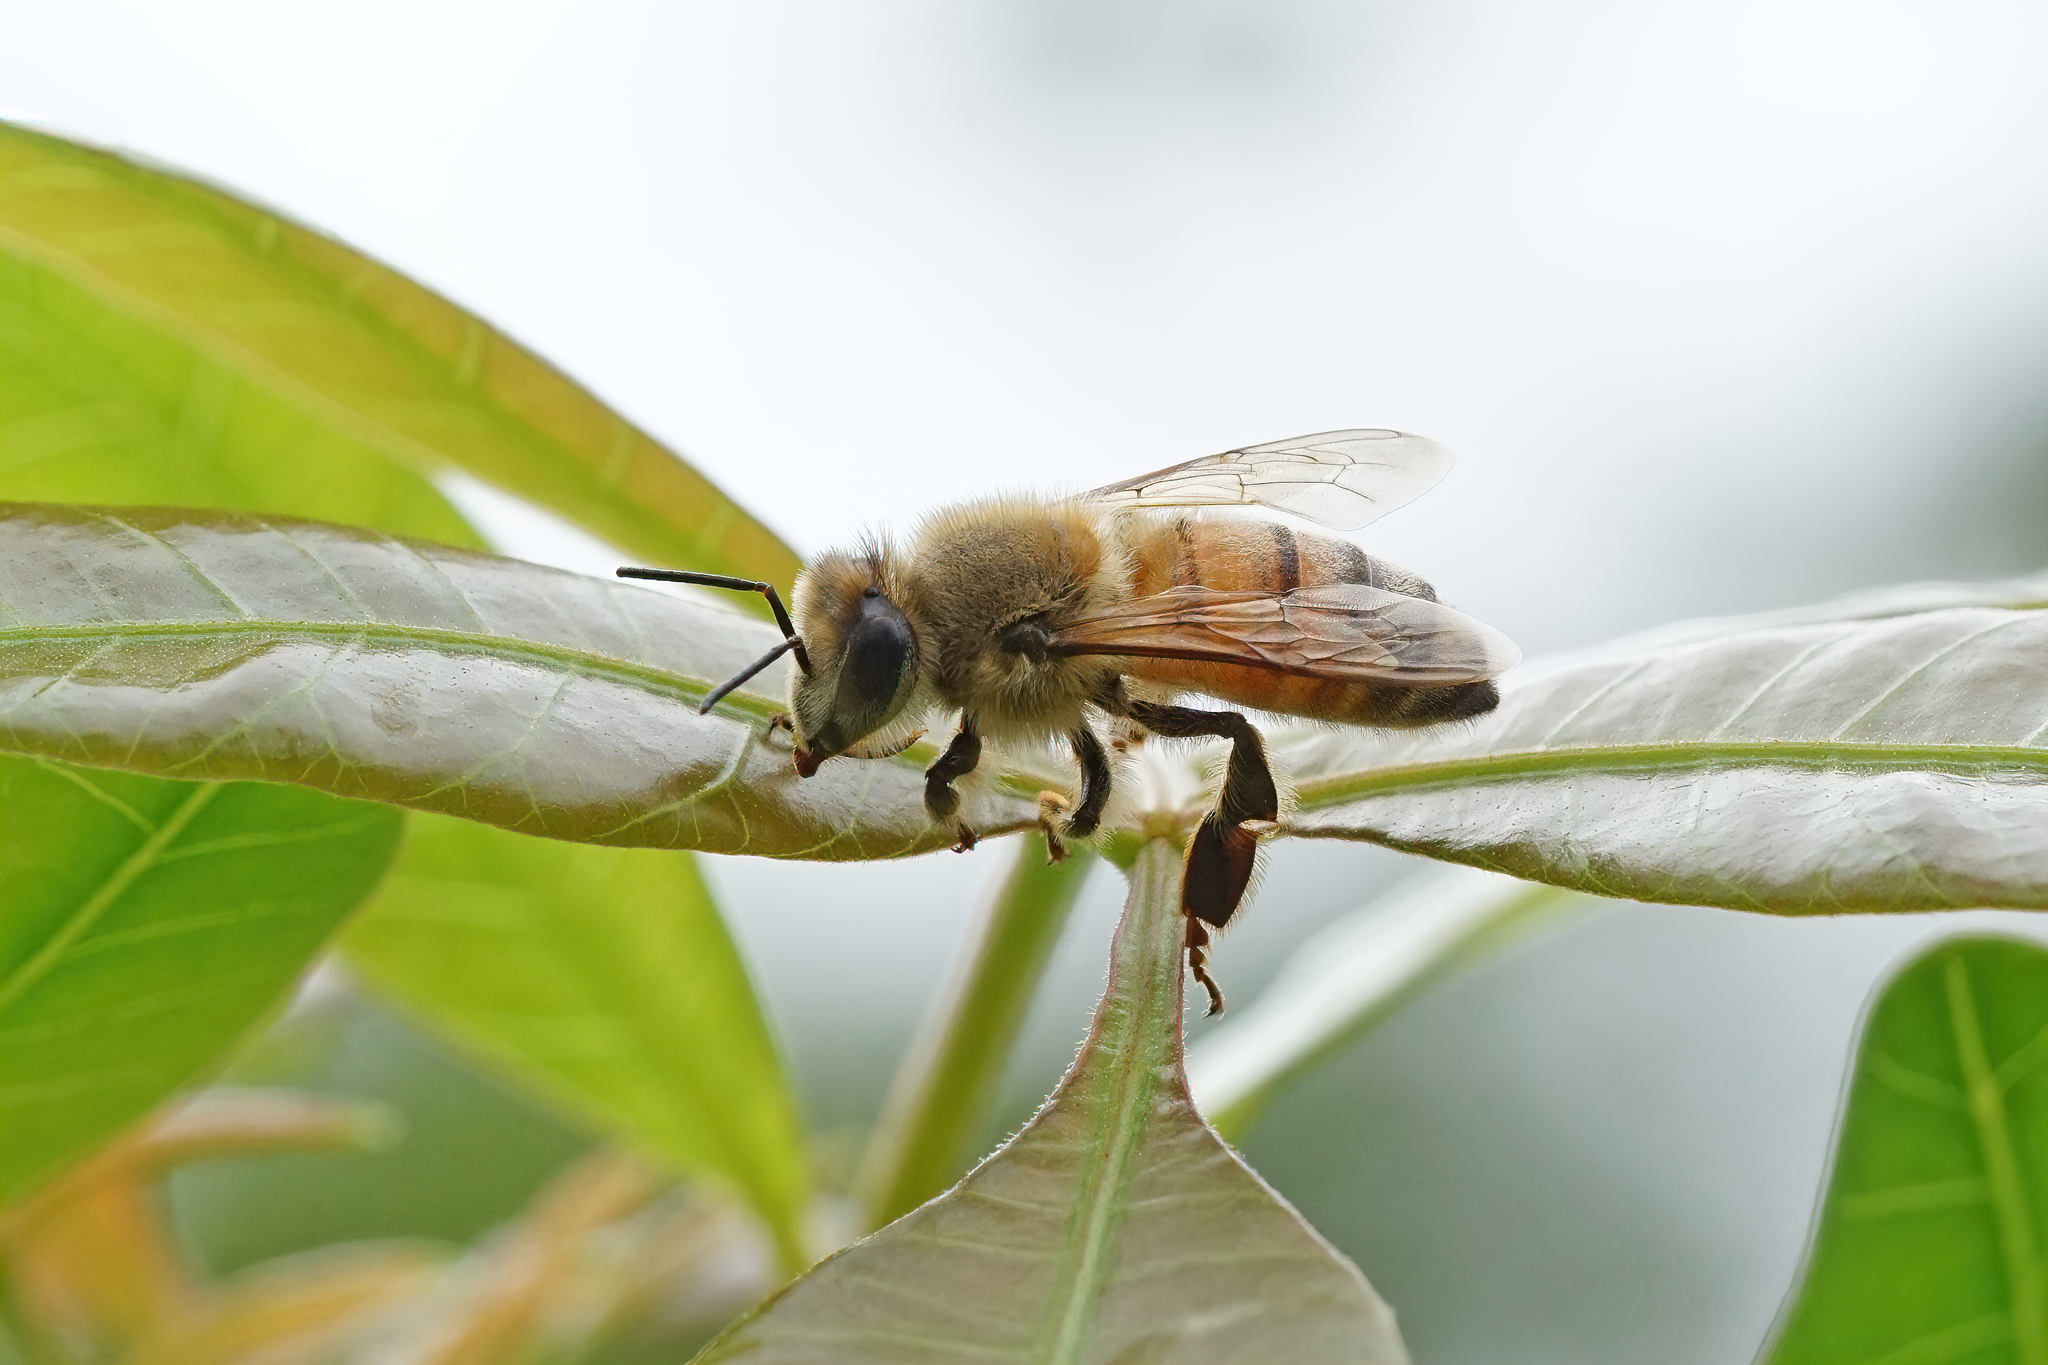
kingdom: Animalia
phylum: Arthropoda
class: Insecta
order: Hymenoptera
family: Apidae
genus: Apis
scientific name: Apis mellifera
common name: Honey bee
